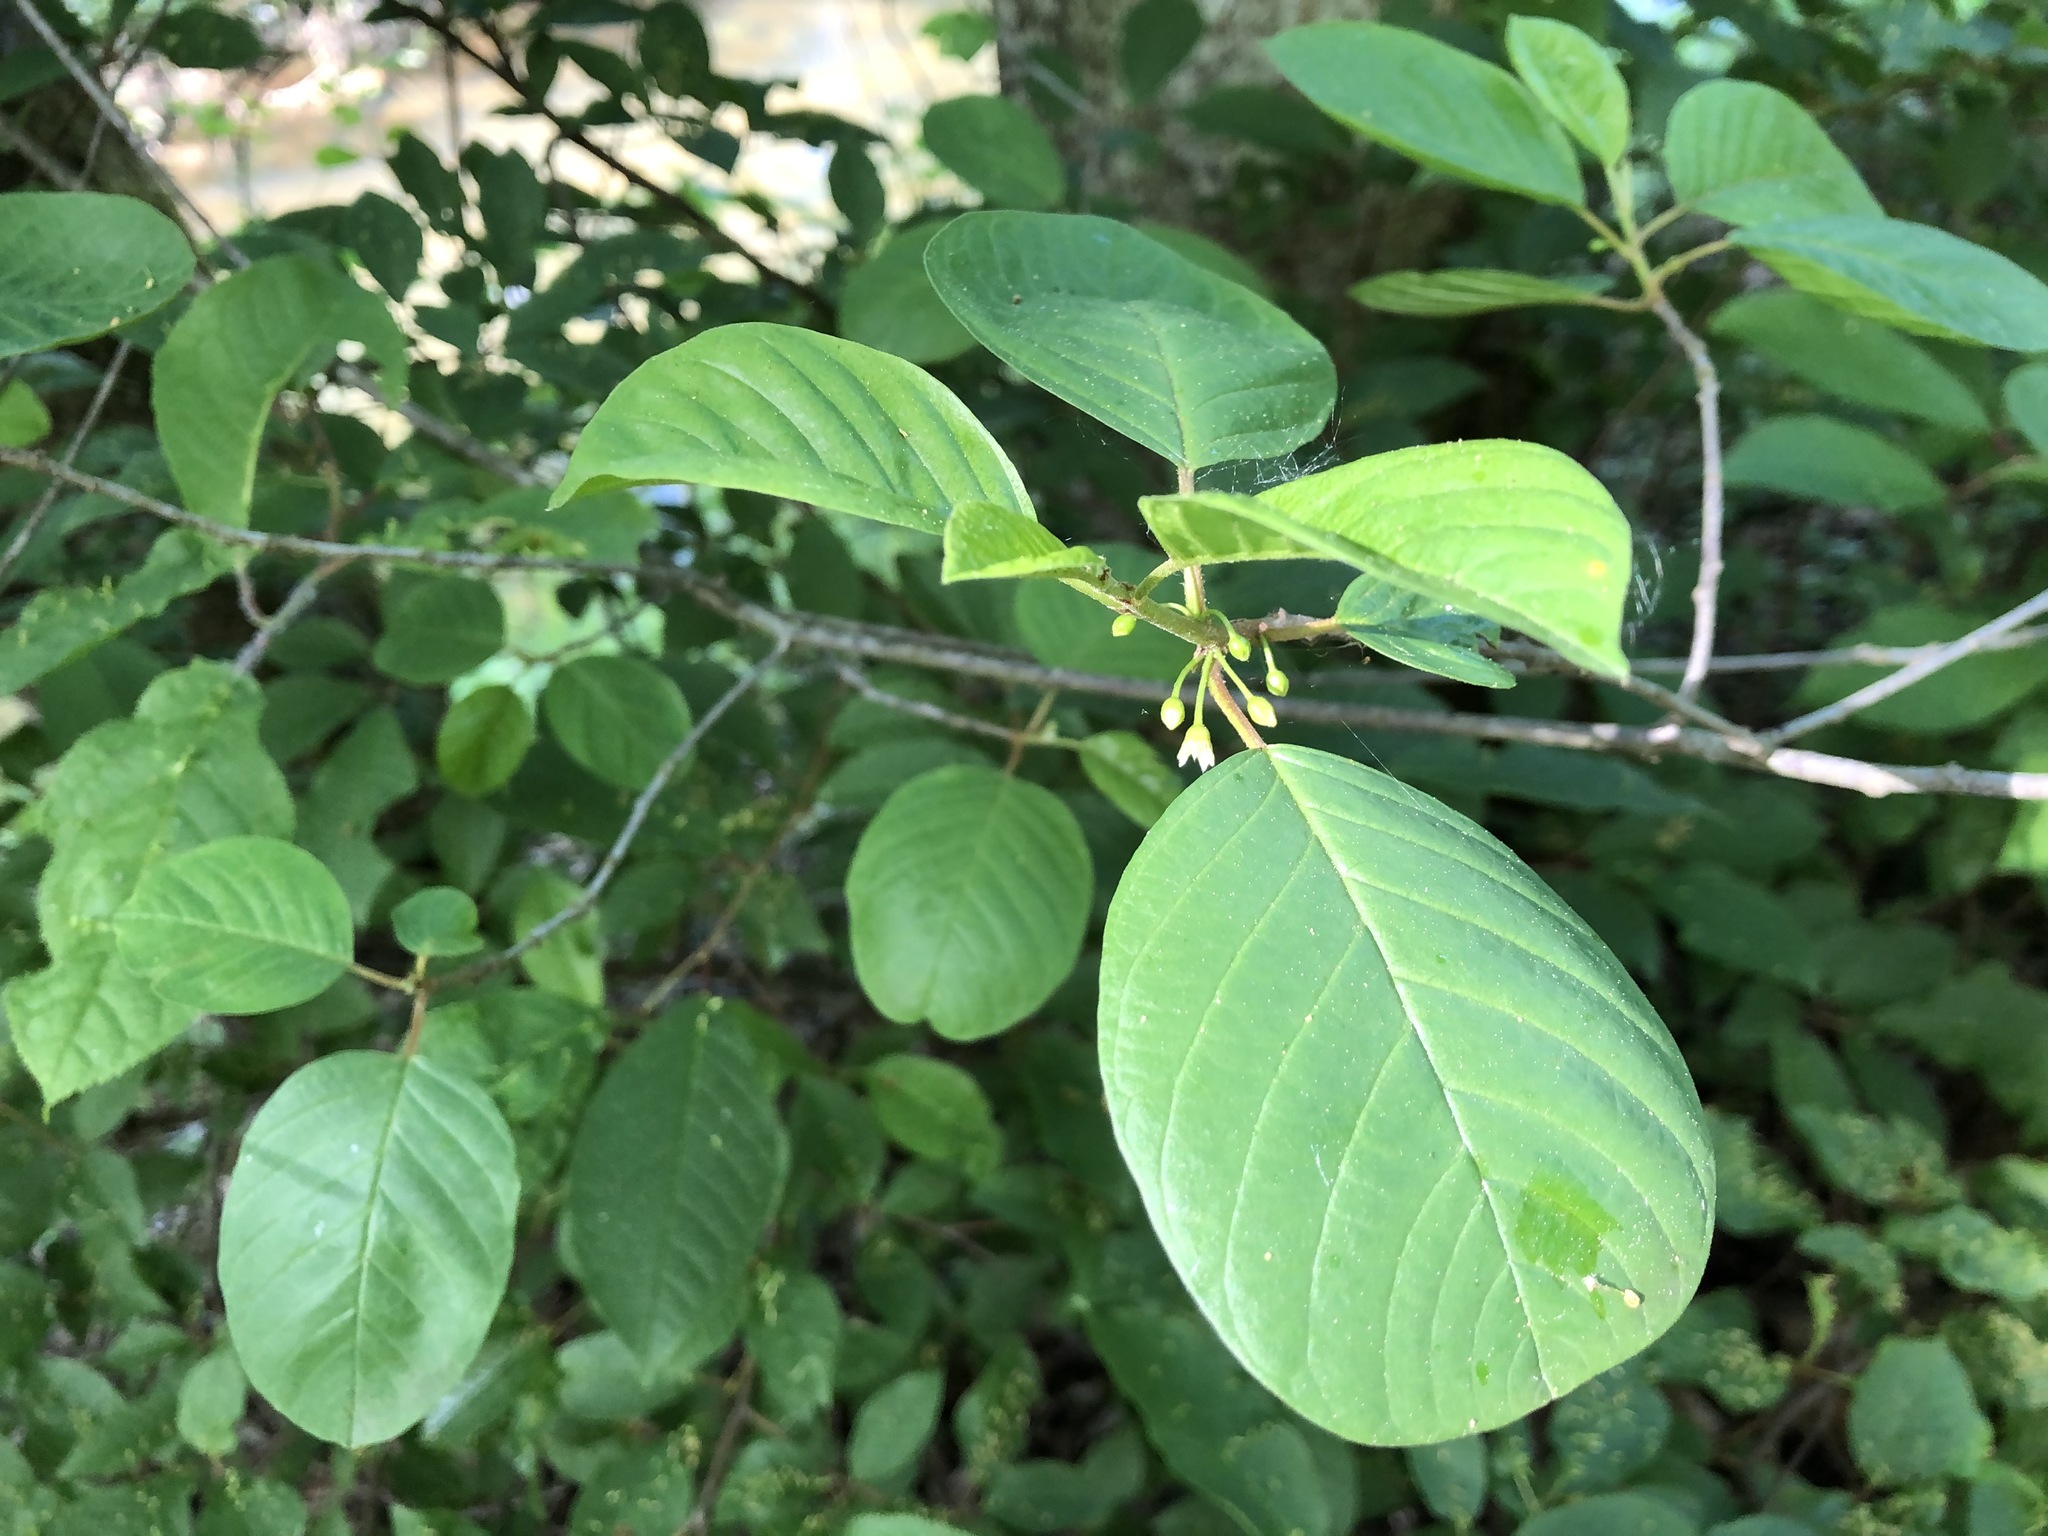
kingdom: Plantae
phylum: Tracheophyta
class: Magnoliopsida
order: Rosales
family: Rhamnaceae
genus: Frangula
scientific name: Frangula alnus
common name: Alder buckthorn
